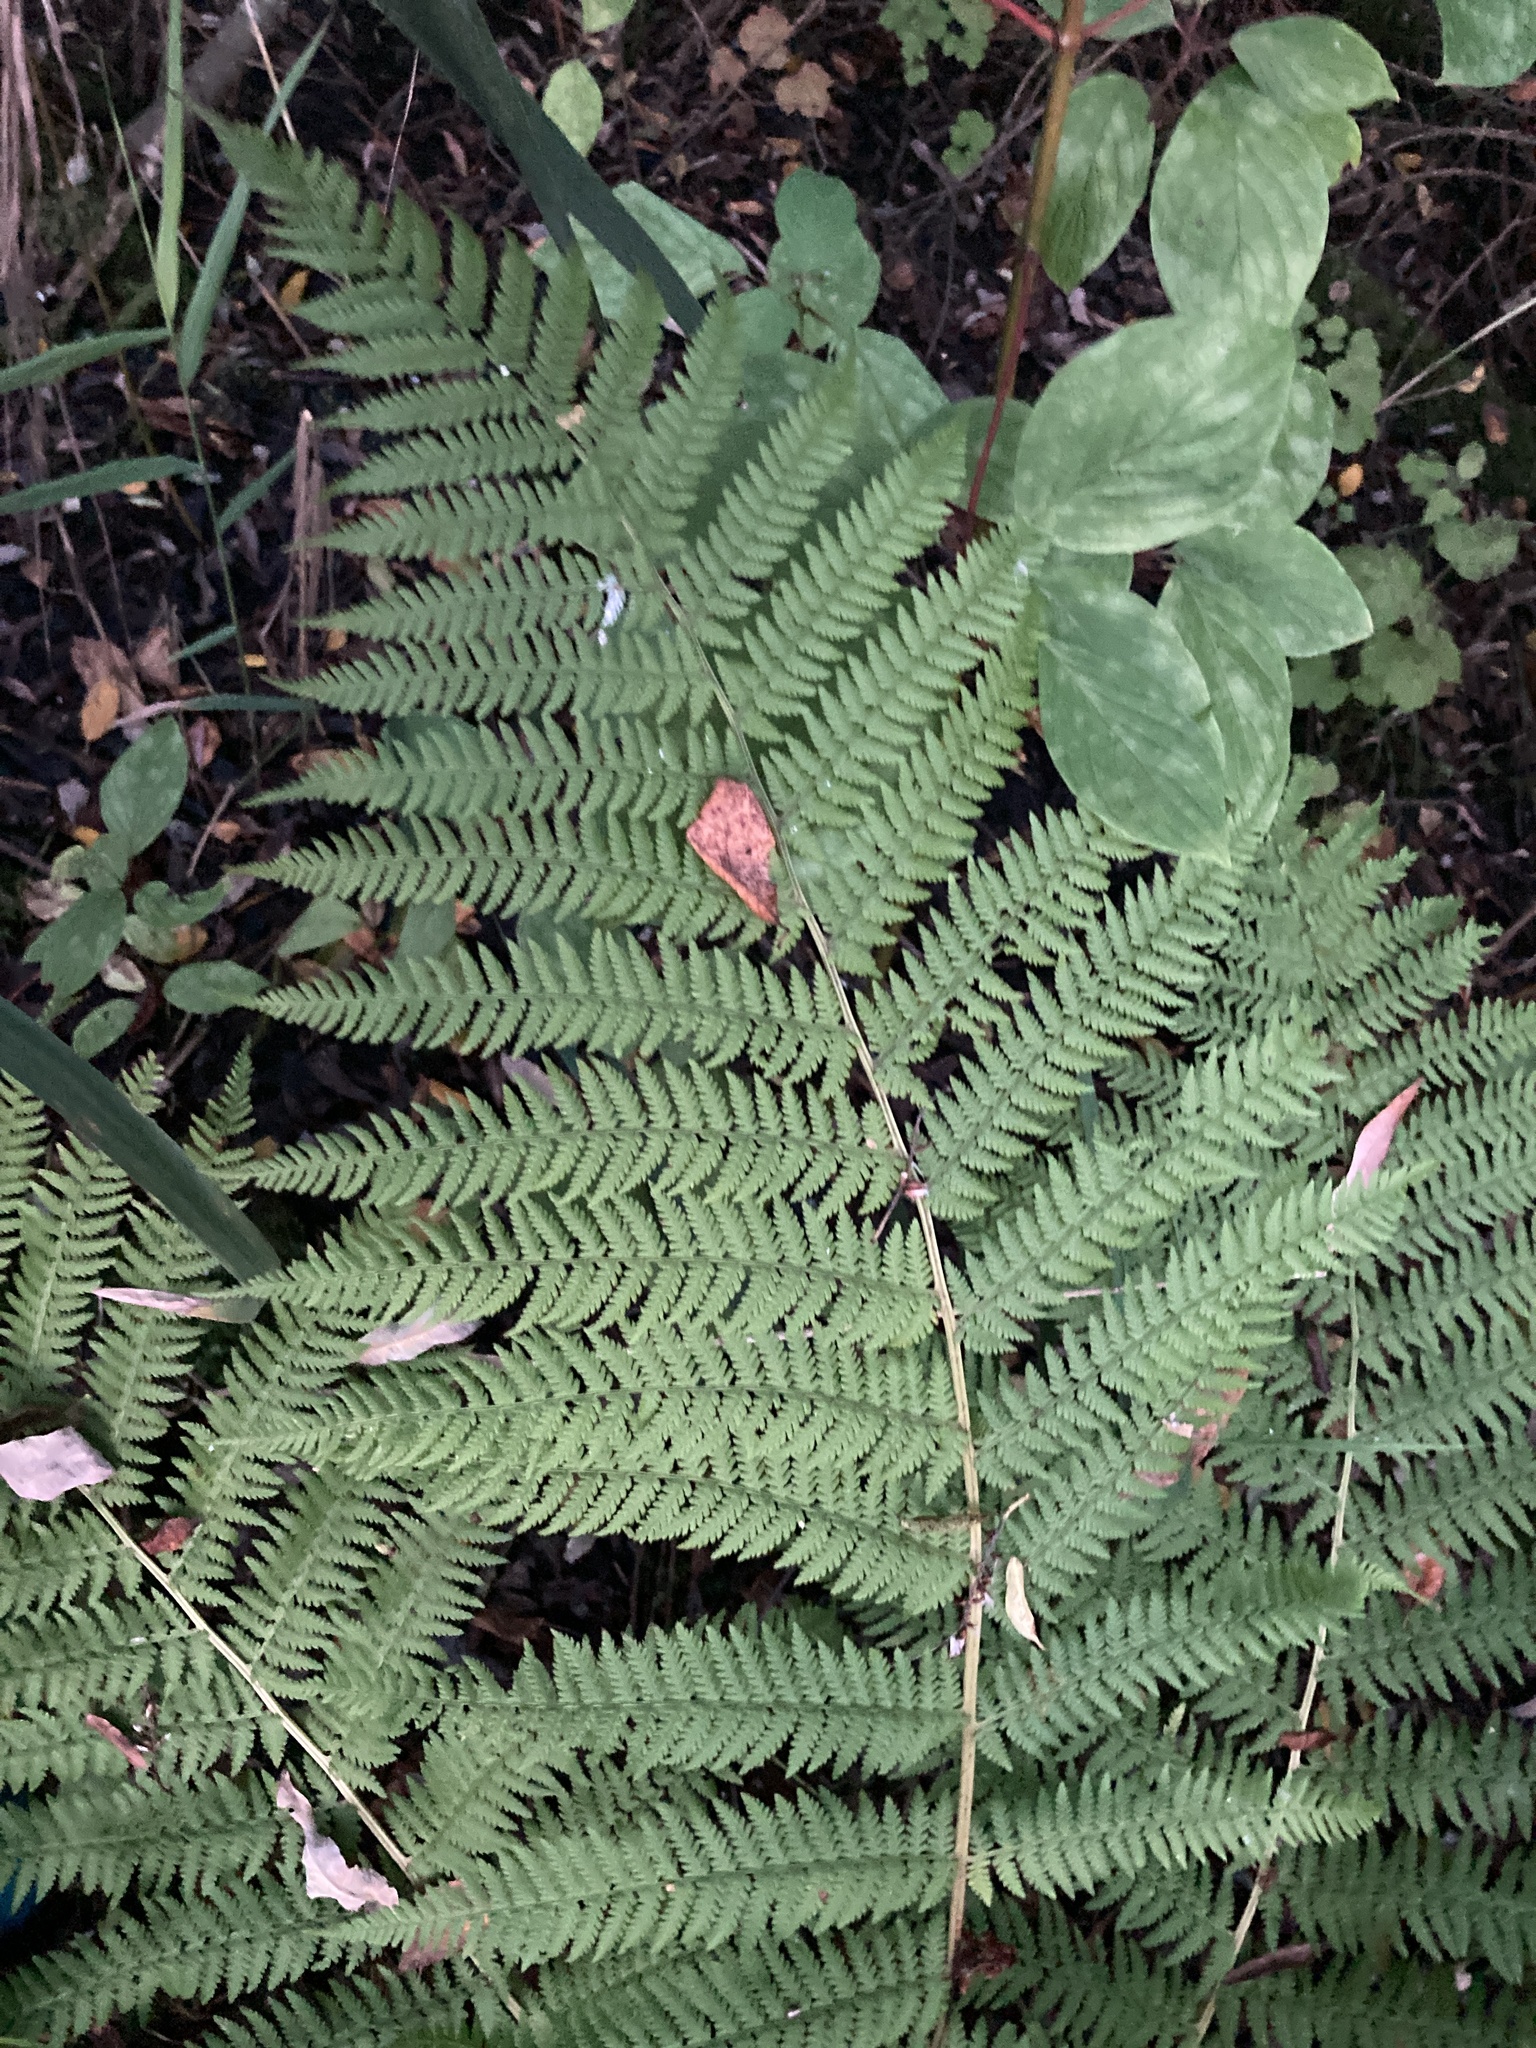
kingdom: Plantae
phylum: Tracheophyta
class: Polypodiopsida
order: Polypodiales
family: Athyriaceae
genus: Athyrium
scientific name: Athyrium filix-femina
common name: Lady fern
